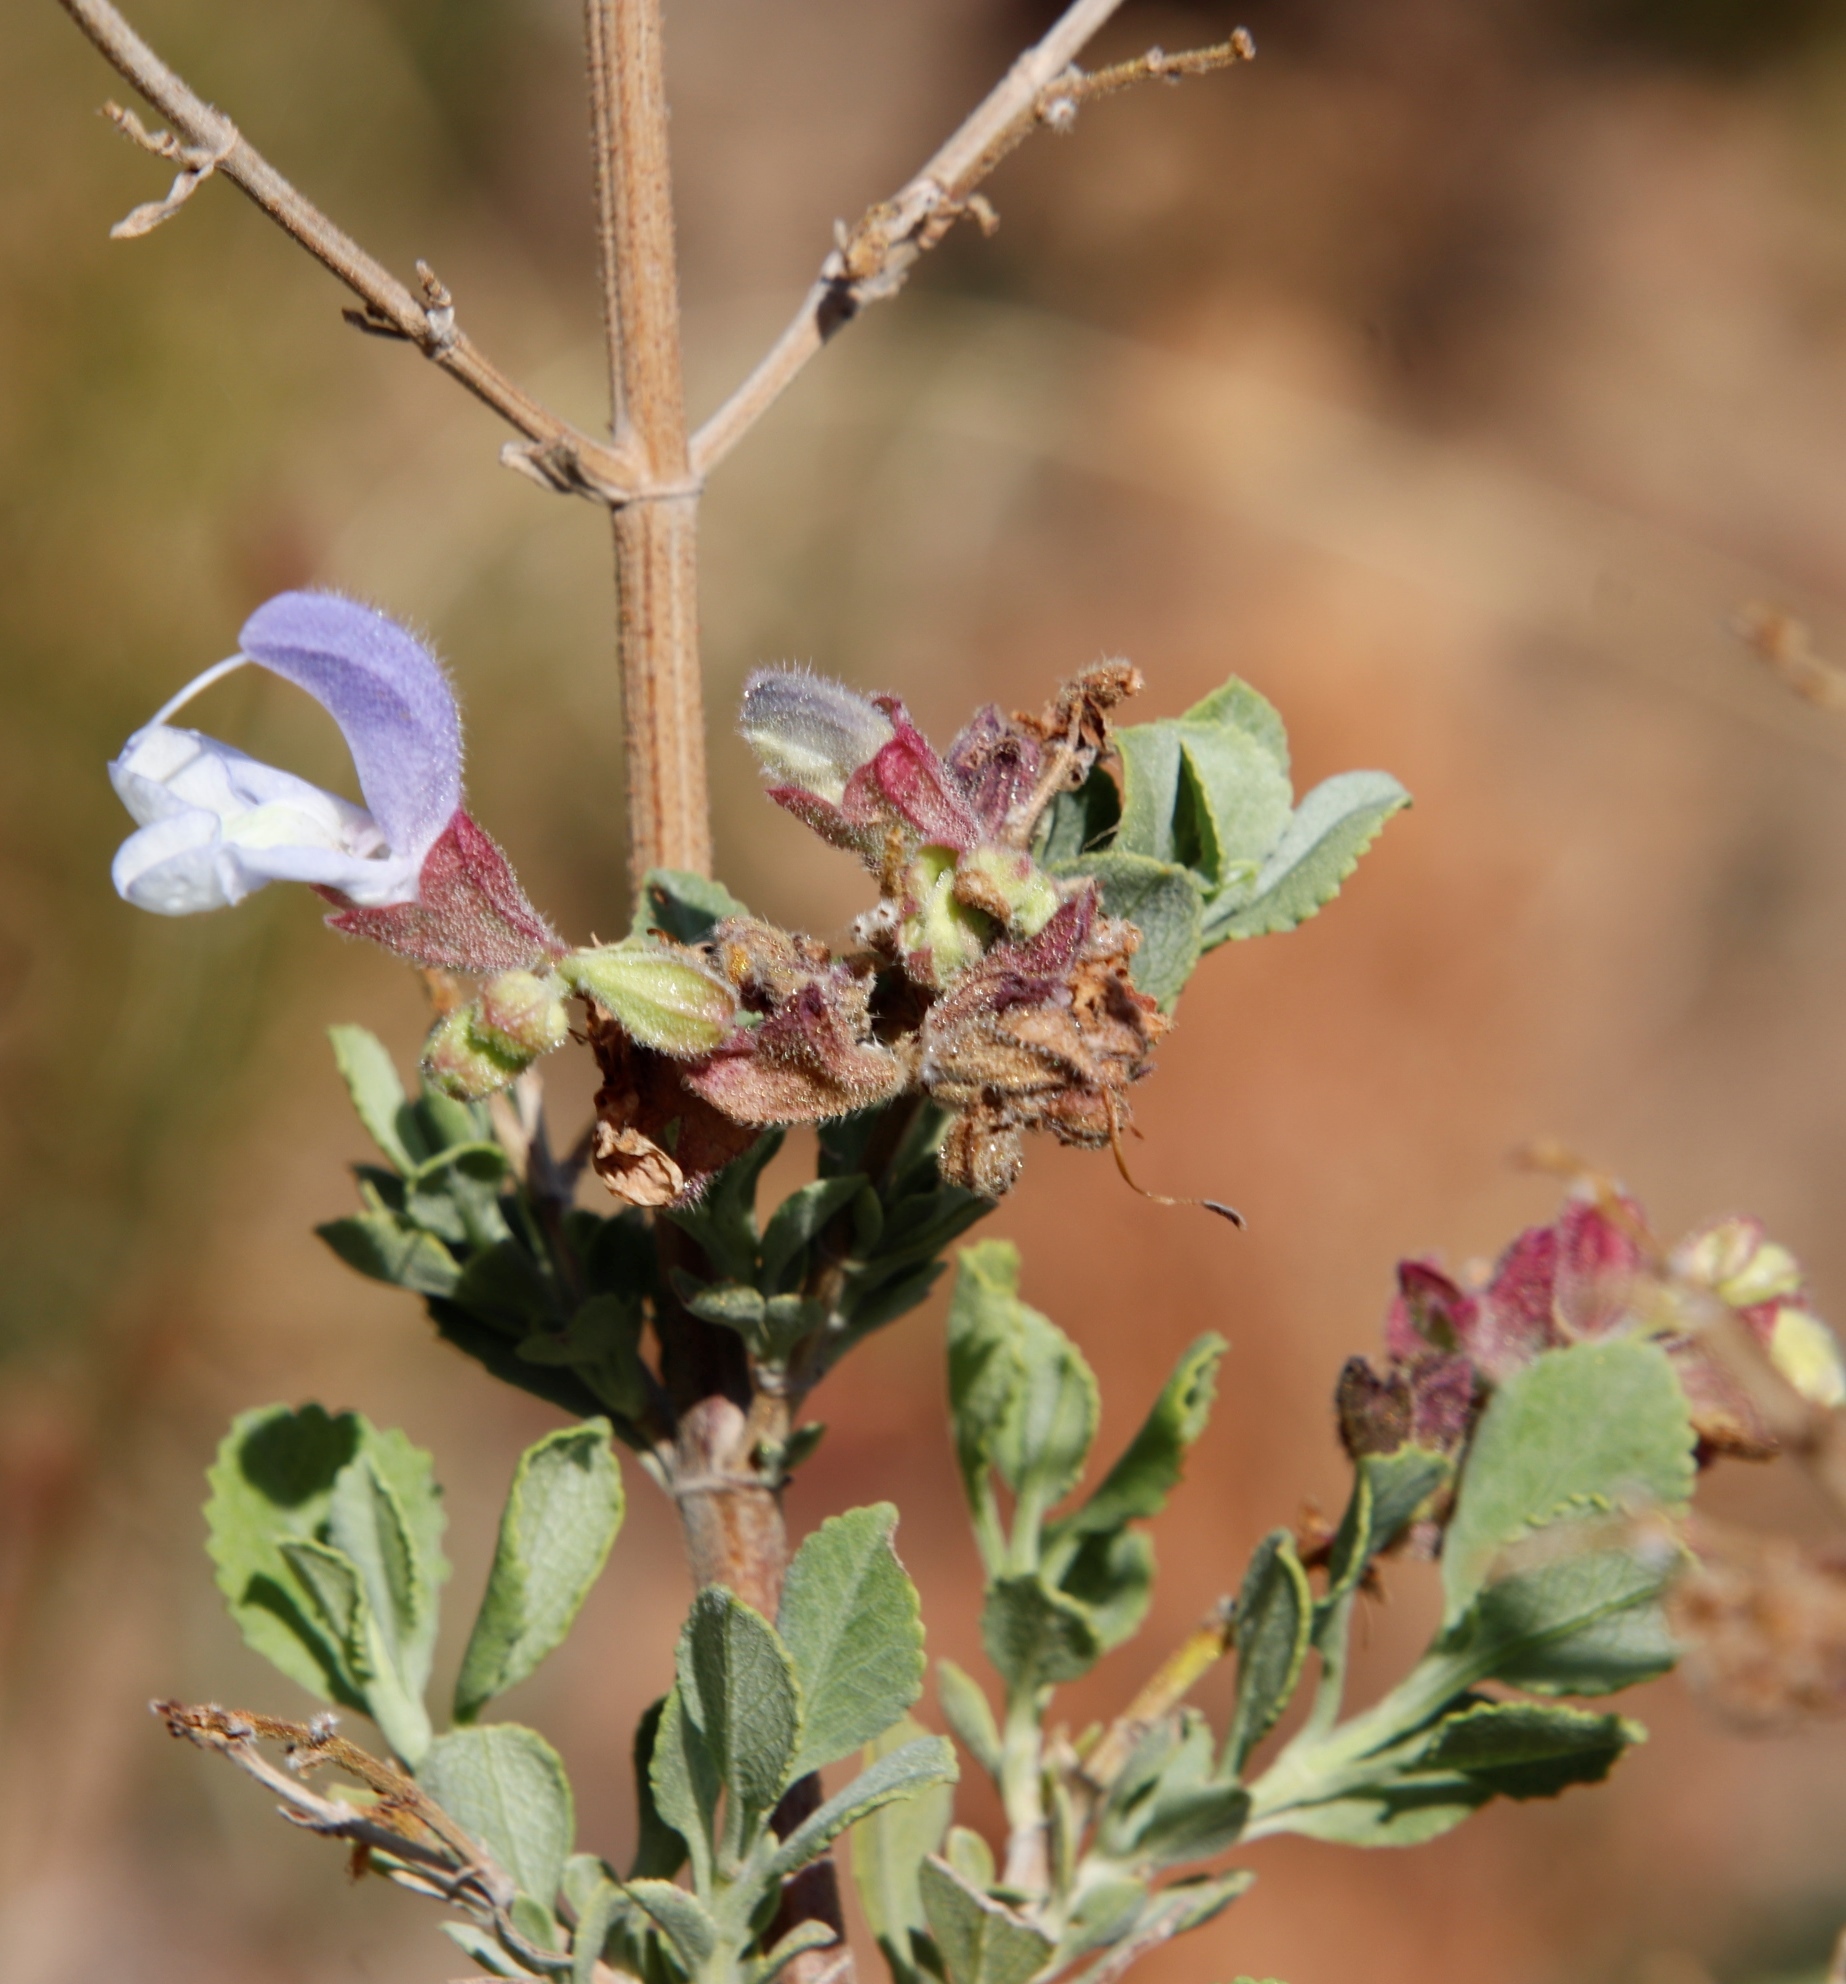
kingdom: Plantae
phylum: Tracheophyta
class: Magnoliopsida
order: Lamiales
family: Lamiaceae
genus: Salvia
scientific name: Salvia chamelaeagnea
